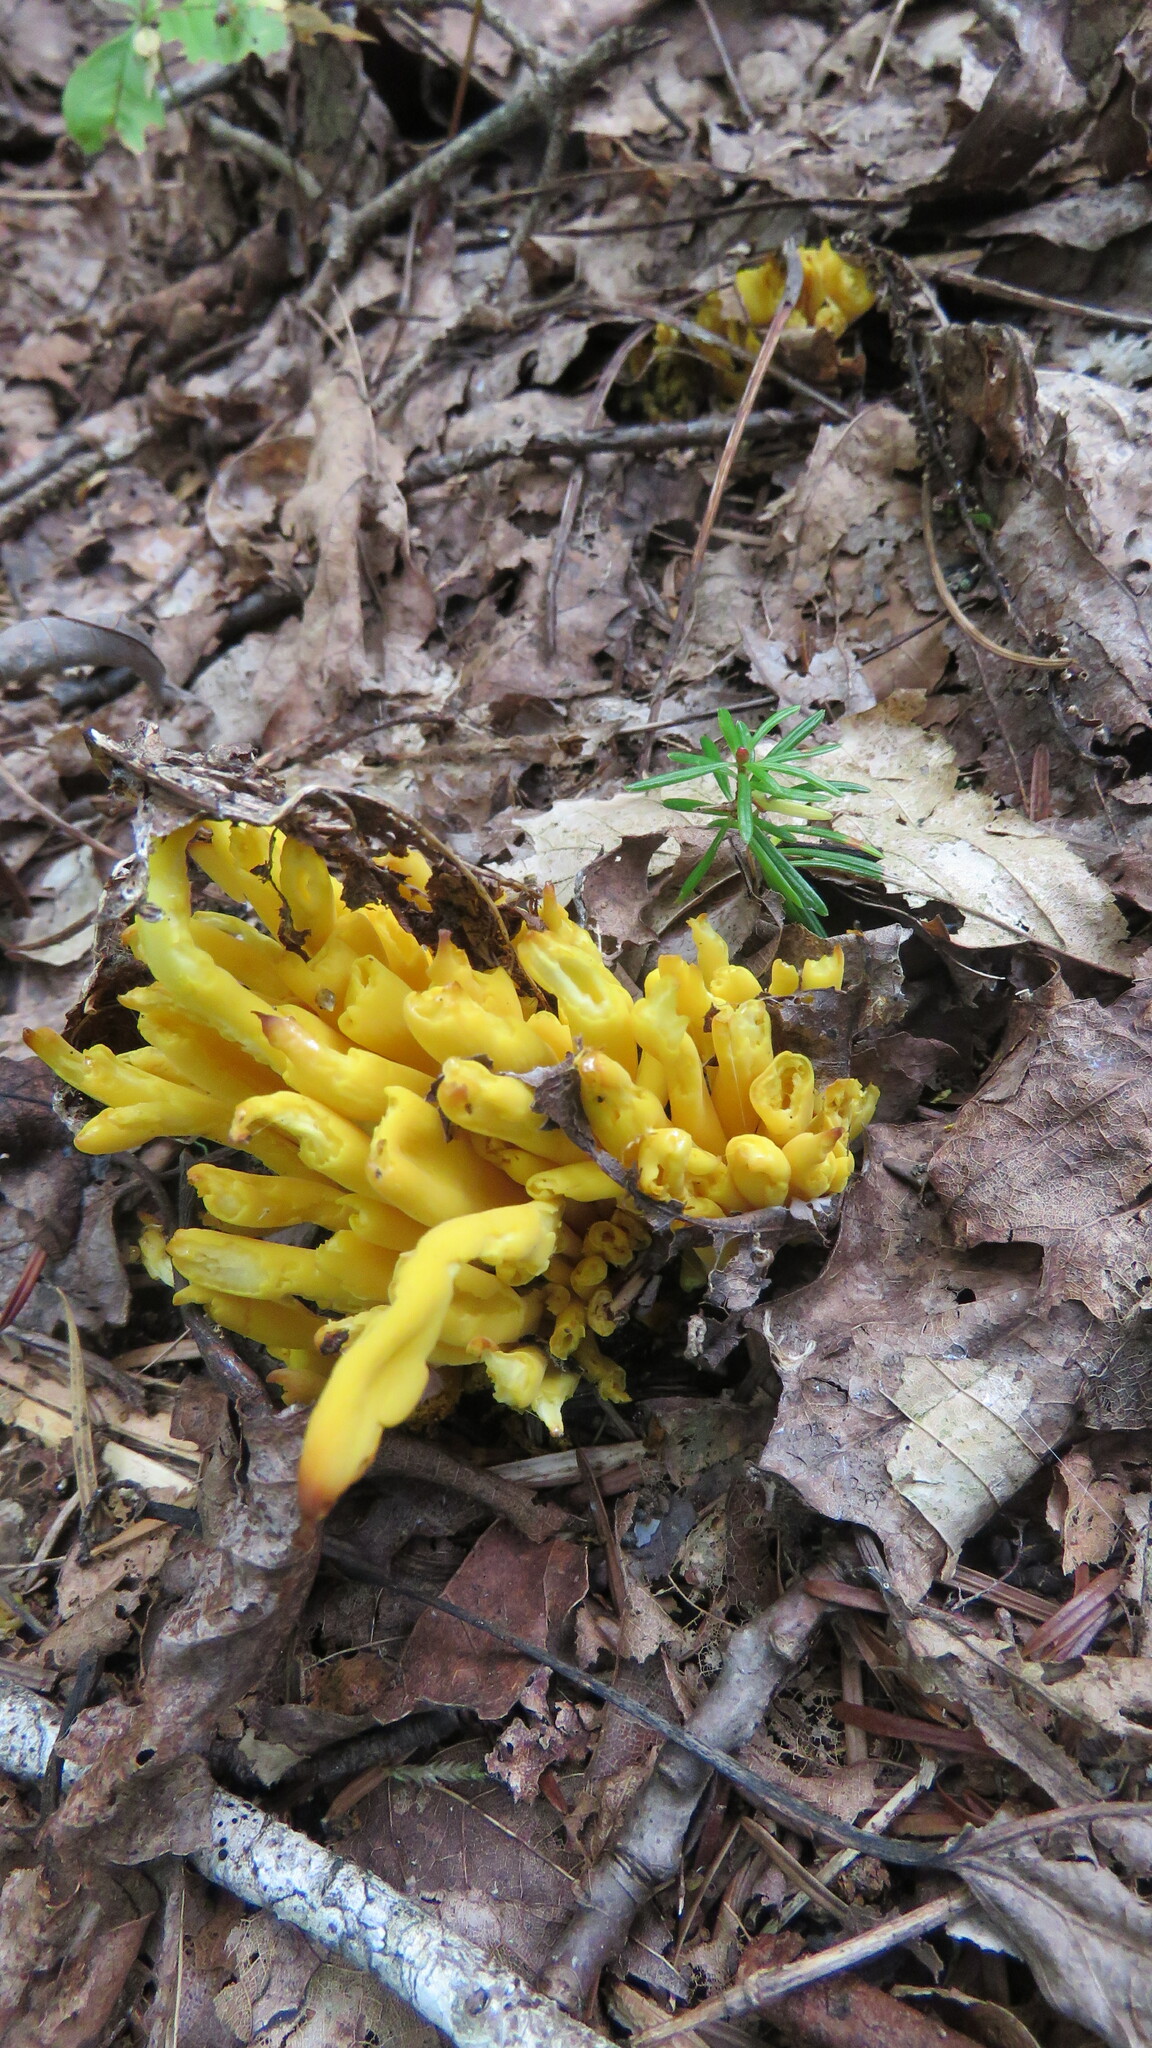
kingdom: Fungi
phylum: Basidiomycota
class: Agaricomycetes
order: Agaricales
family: Clavariaceae
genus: Clavulinopsis
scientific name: Clavulinopsis fusiformis
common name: Golden spindles
